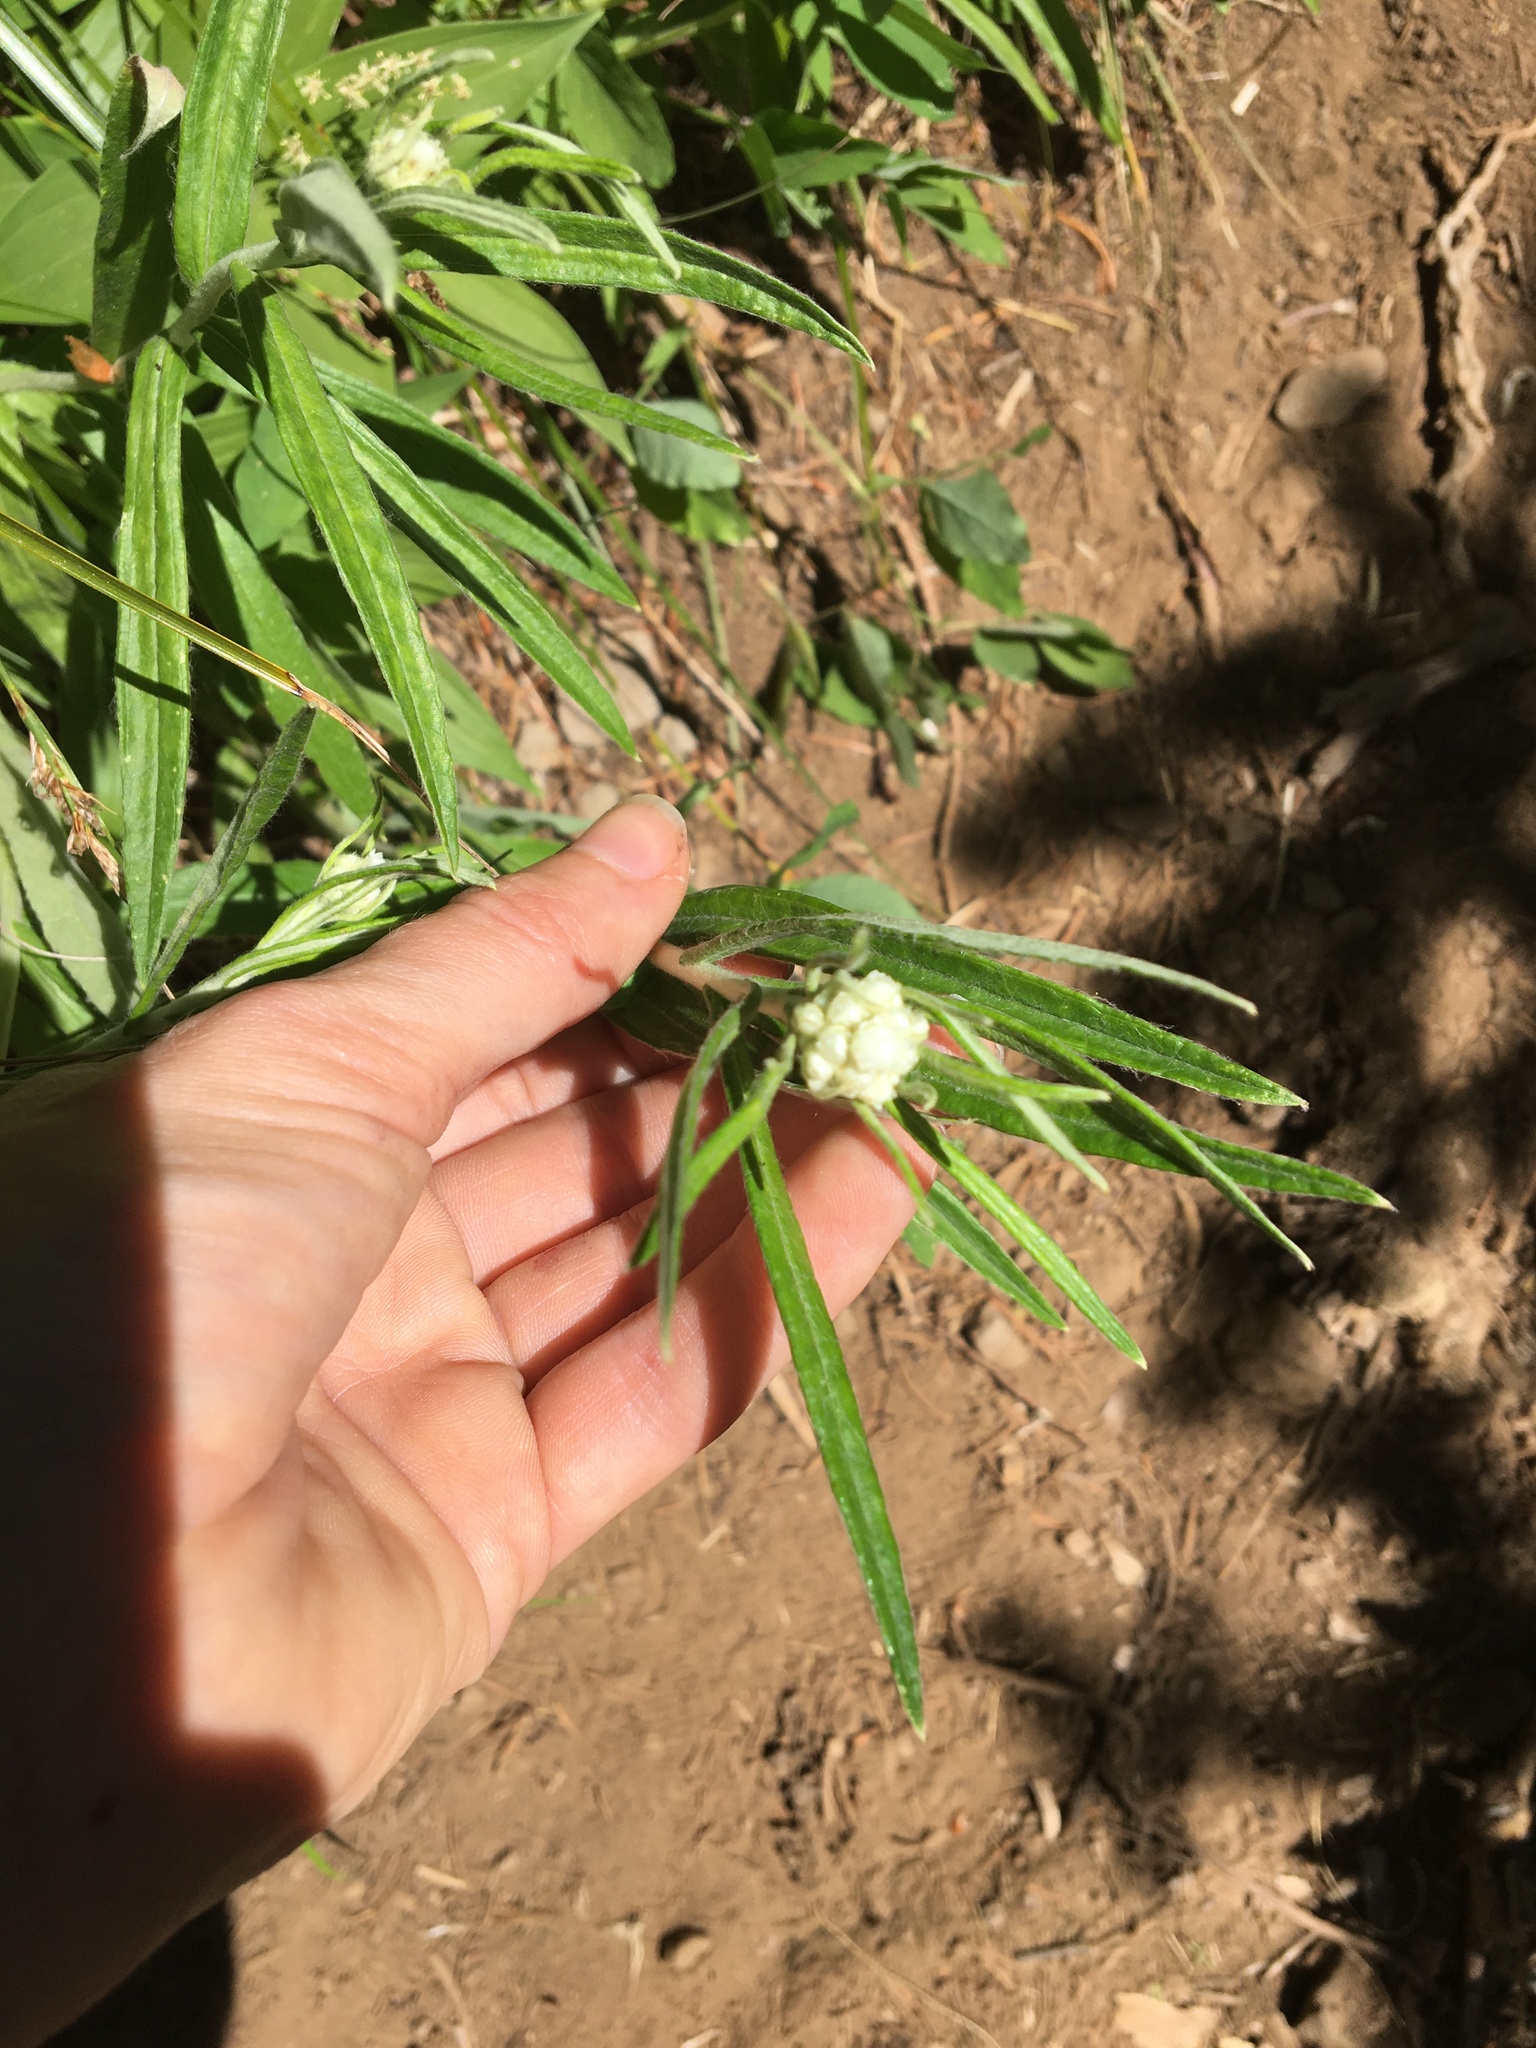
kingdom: Plantae
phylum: Tracheophyta
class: Magnoliopsida
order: Asterales
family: Asteraceae
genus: Anaphalis
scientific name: Anaphalis margaritacea
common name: Pearly everlasting
